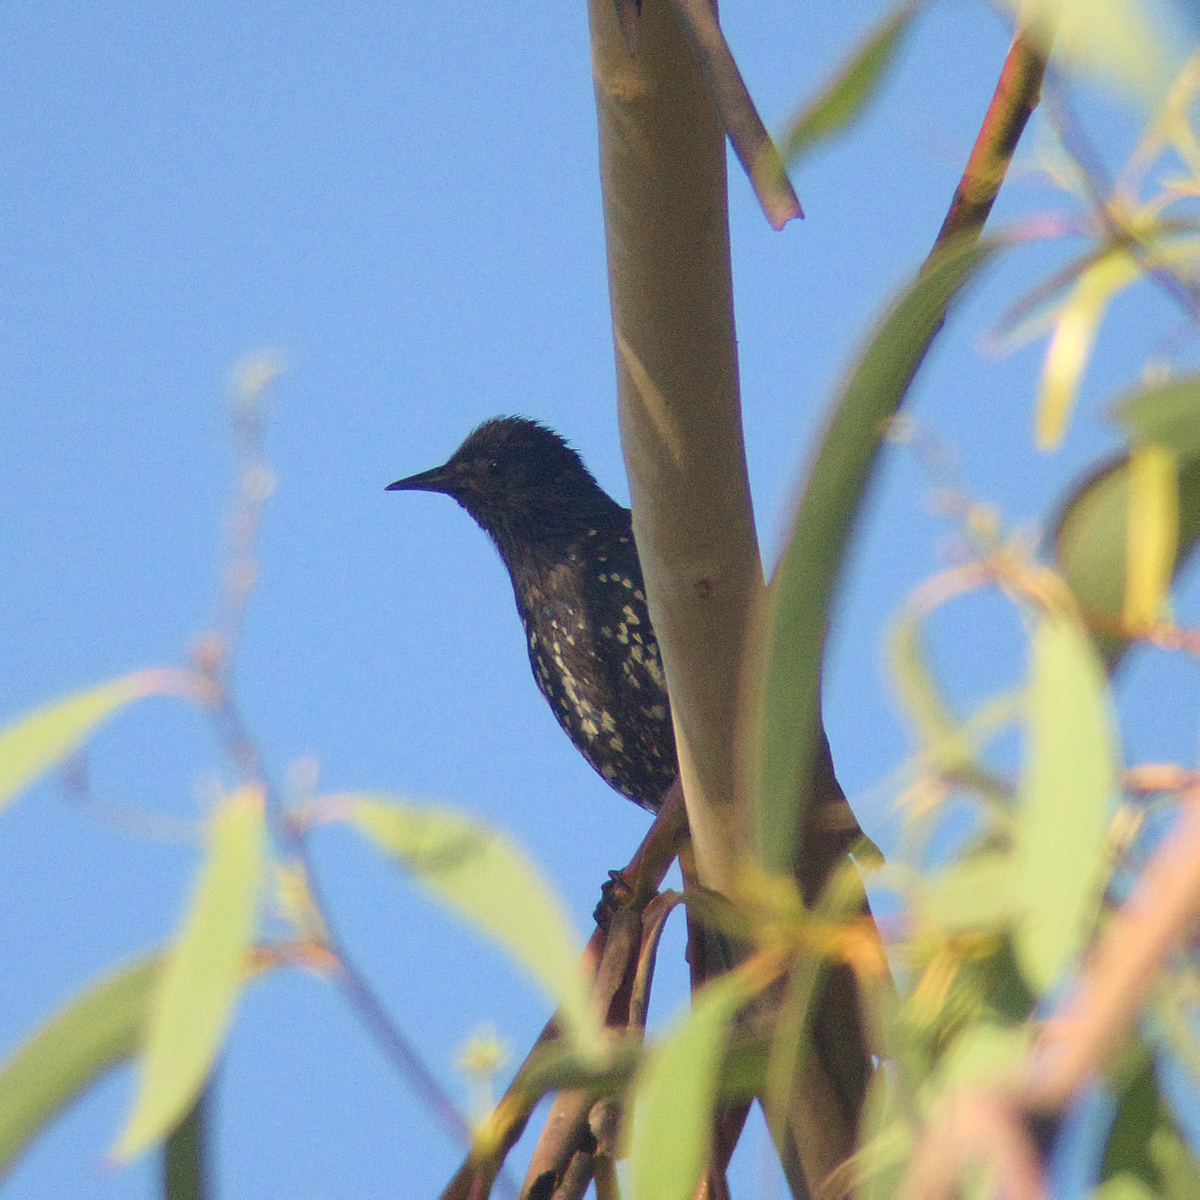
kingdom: Animalia
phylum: Chordata
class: Aves
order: Passeriformes
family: Sturnidae
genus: Sturnus
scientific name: Sturnus vulgaris
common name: Common starling
